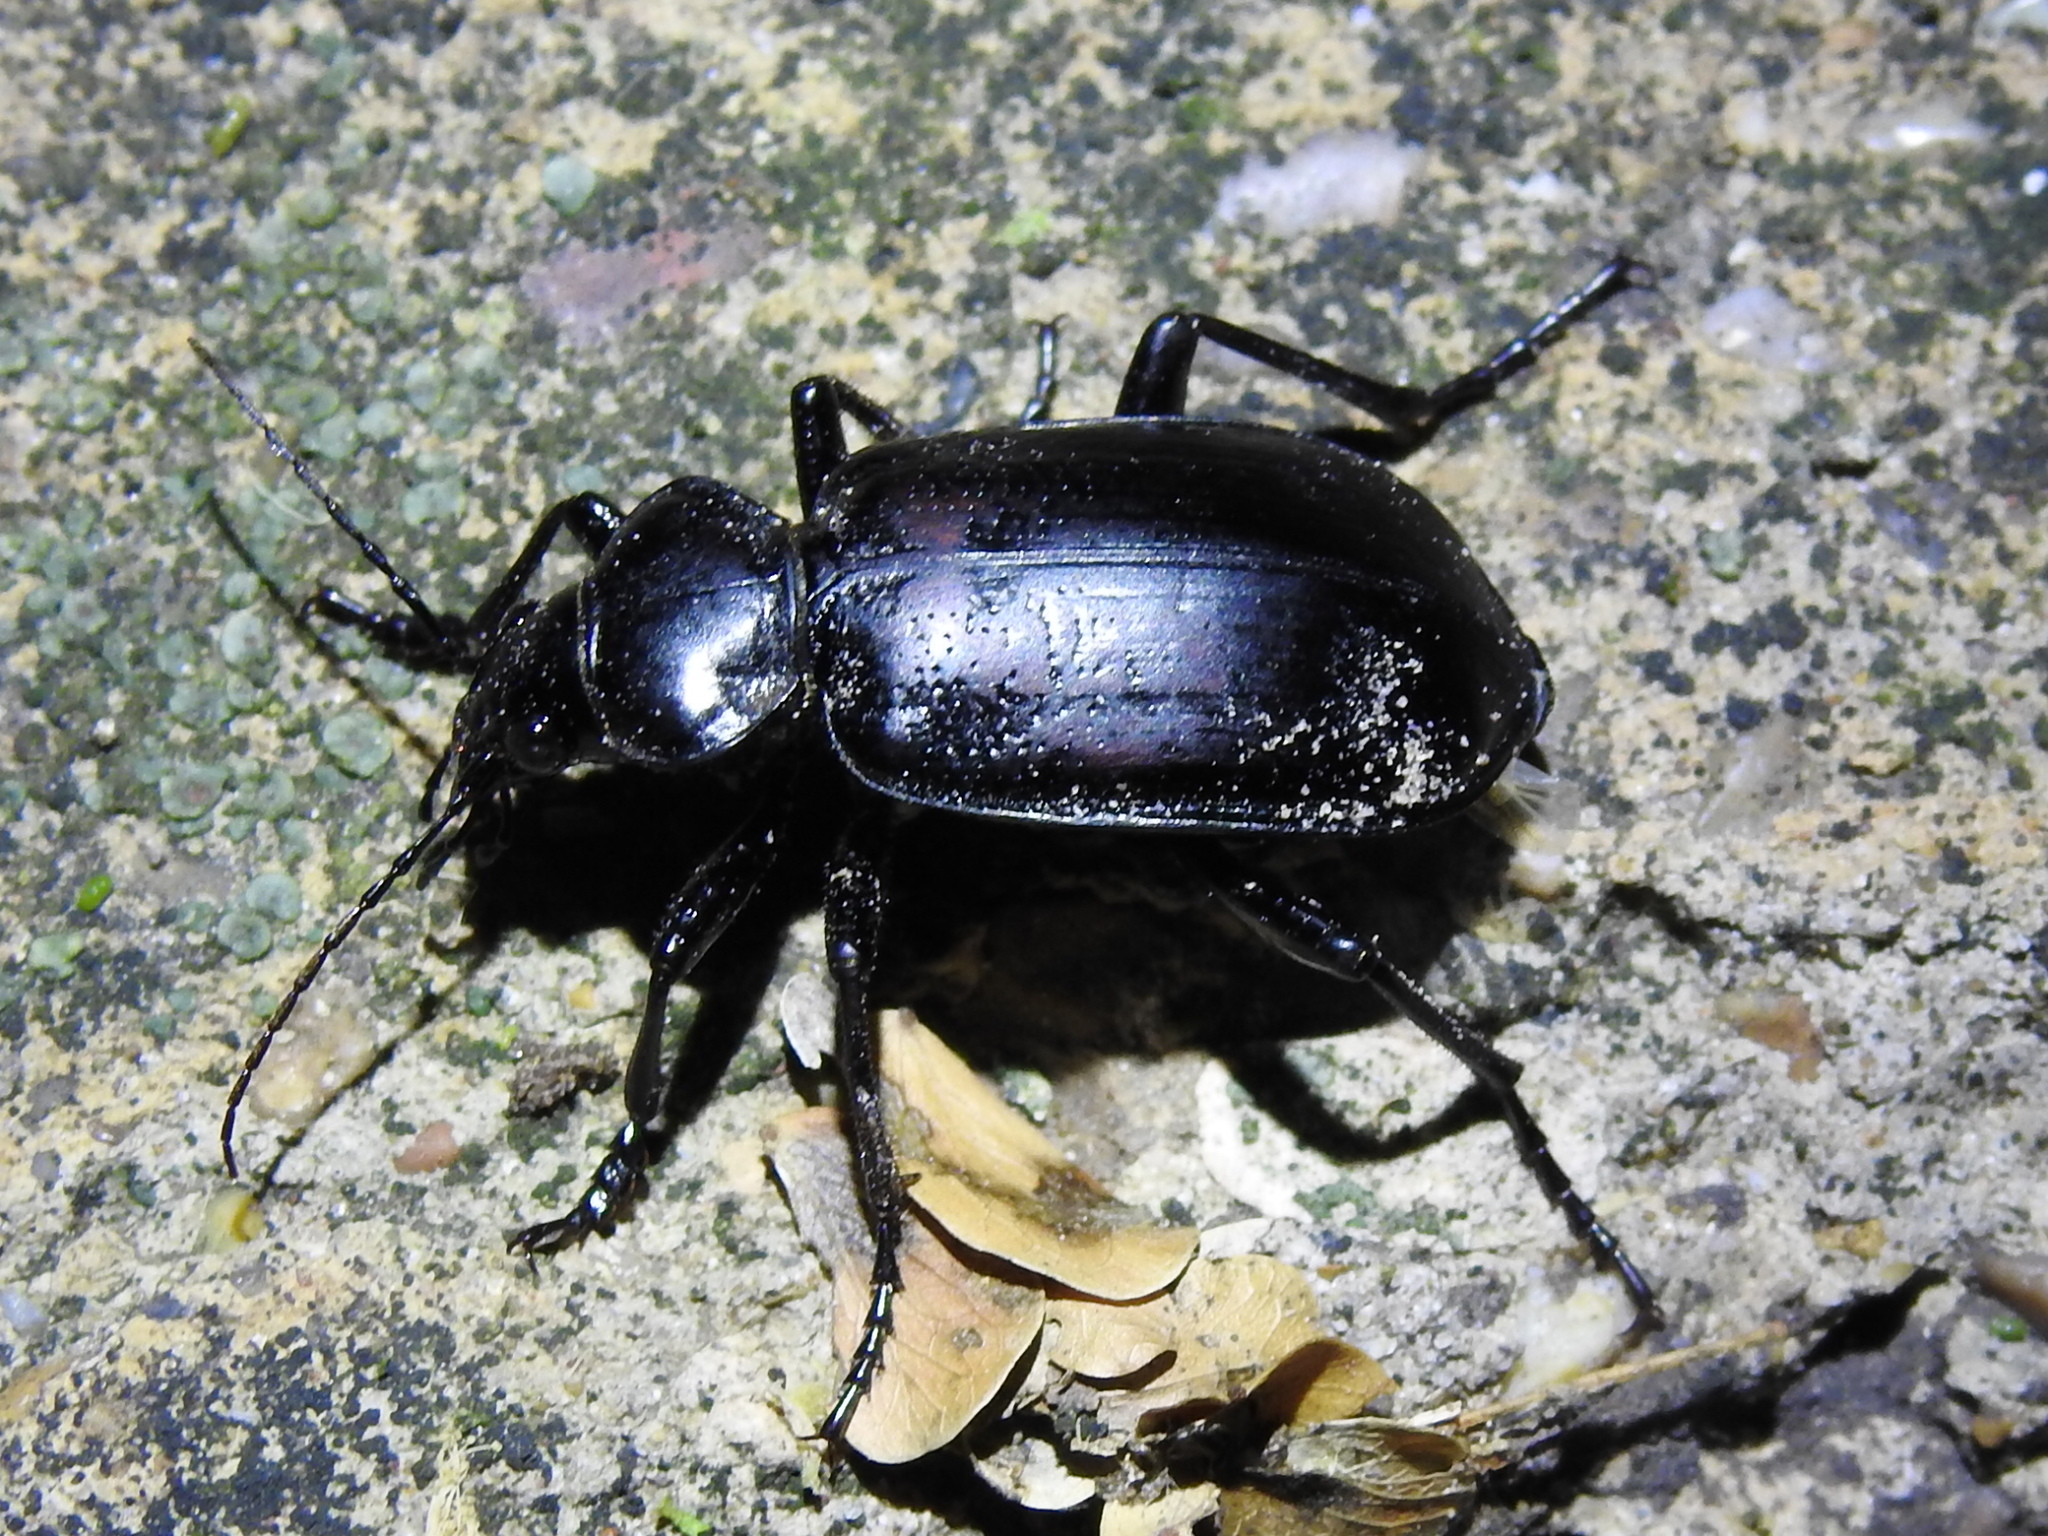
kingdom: Animalia
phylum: Arthropoda
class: Insecta
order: Coleoptera
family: Carabidae
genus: Calosoma
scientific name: Calosoma marginale
